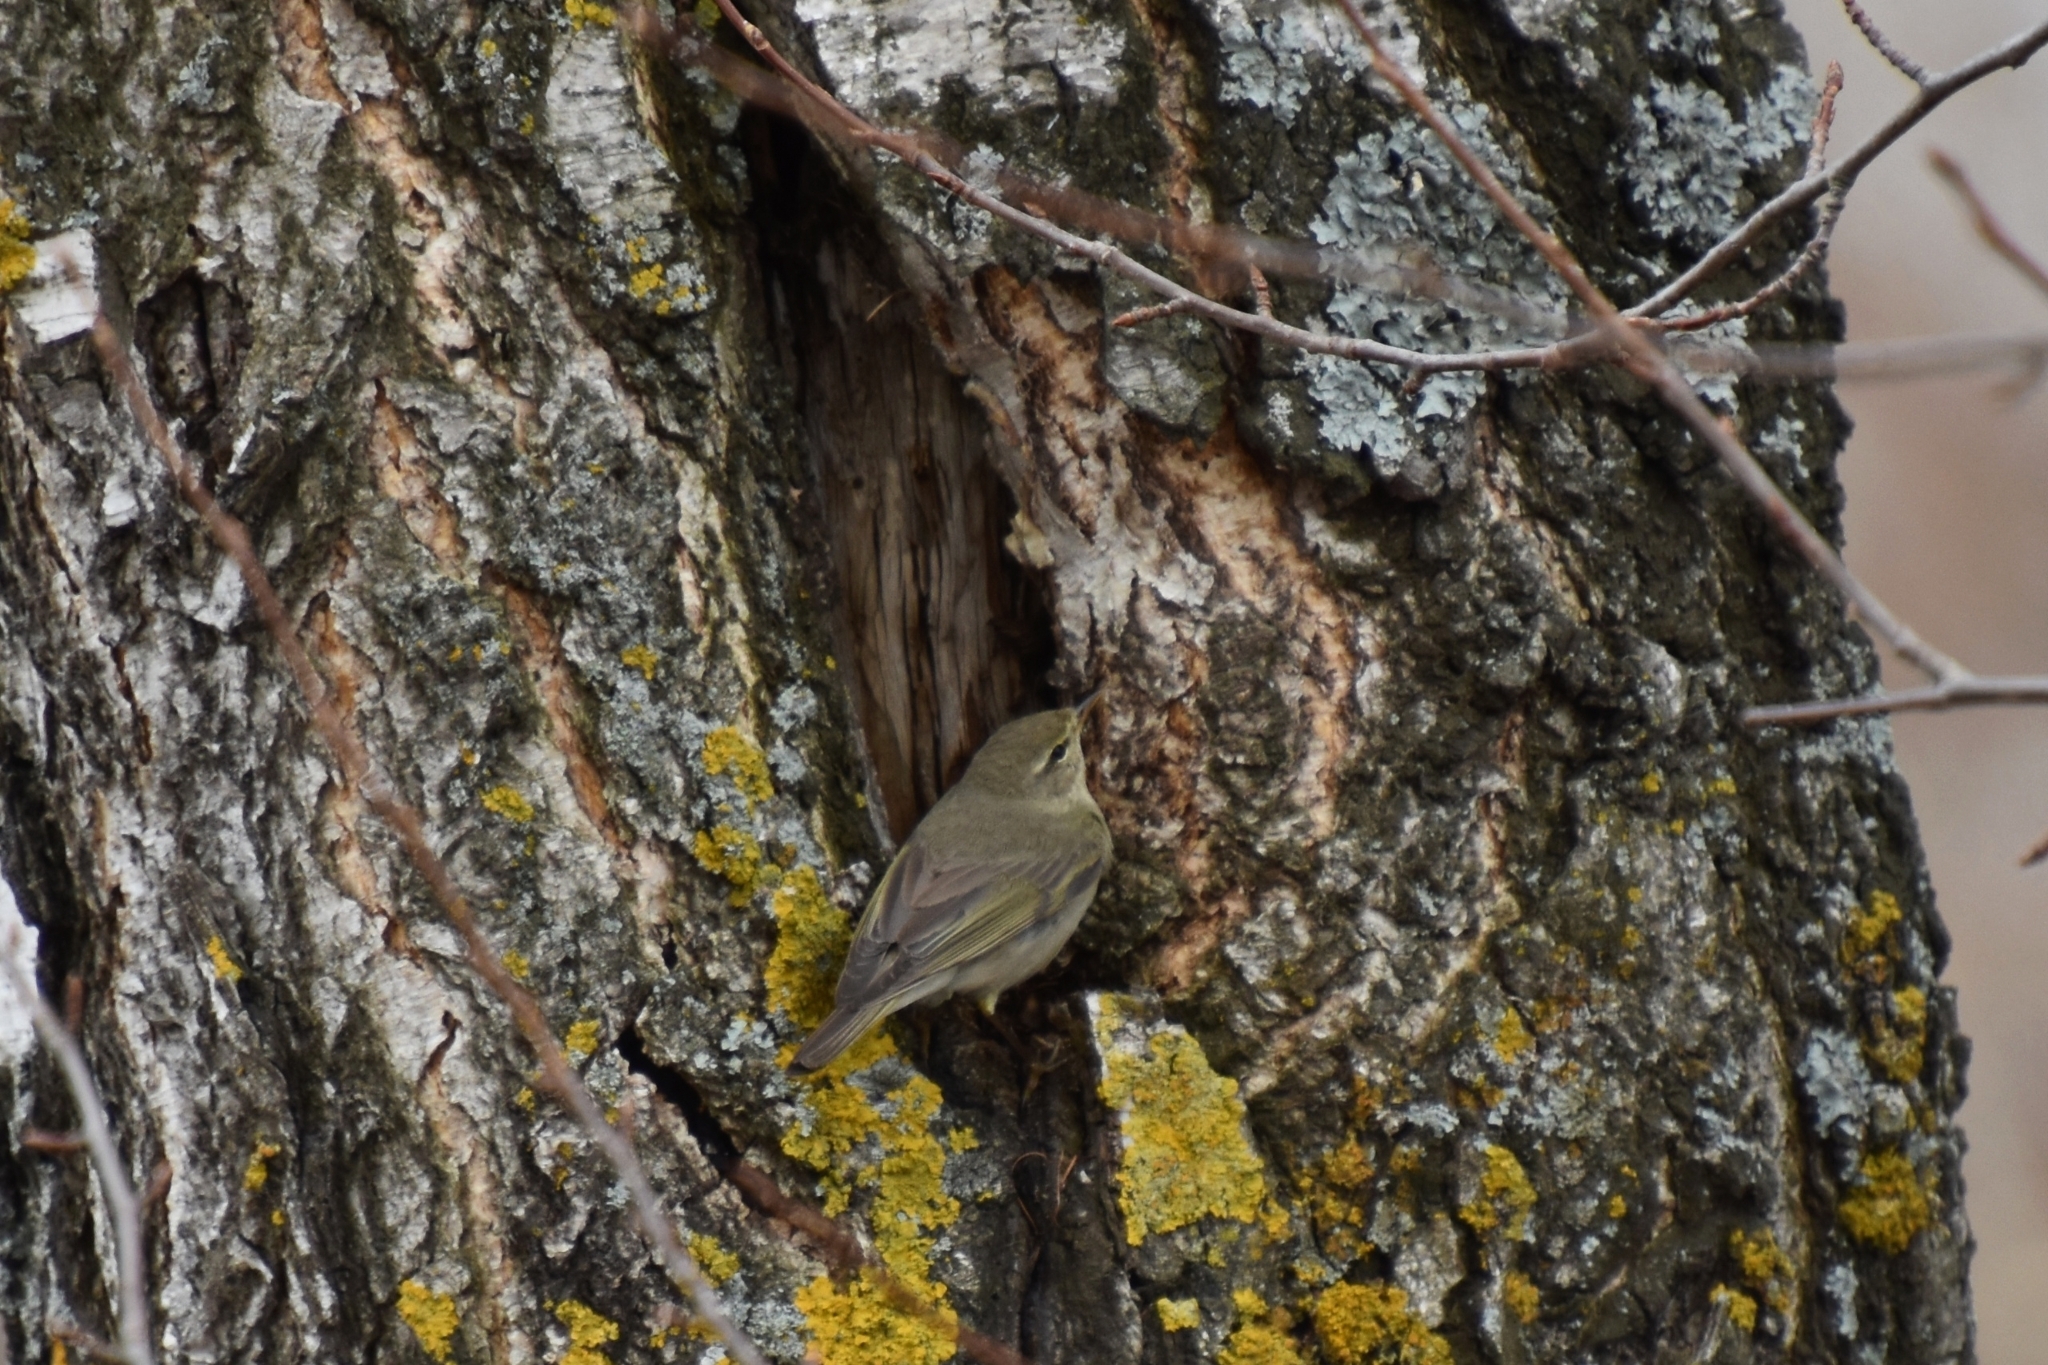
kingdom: Animalia
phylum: Chordata
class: Aves
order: Passeriformes
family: Phylloscopidae
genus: Phylloscopus
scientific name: Phylloscopus trochilus
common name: Willow warbler
